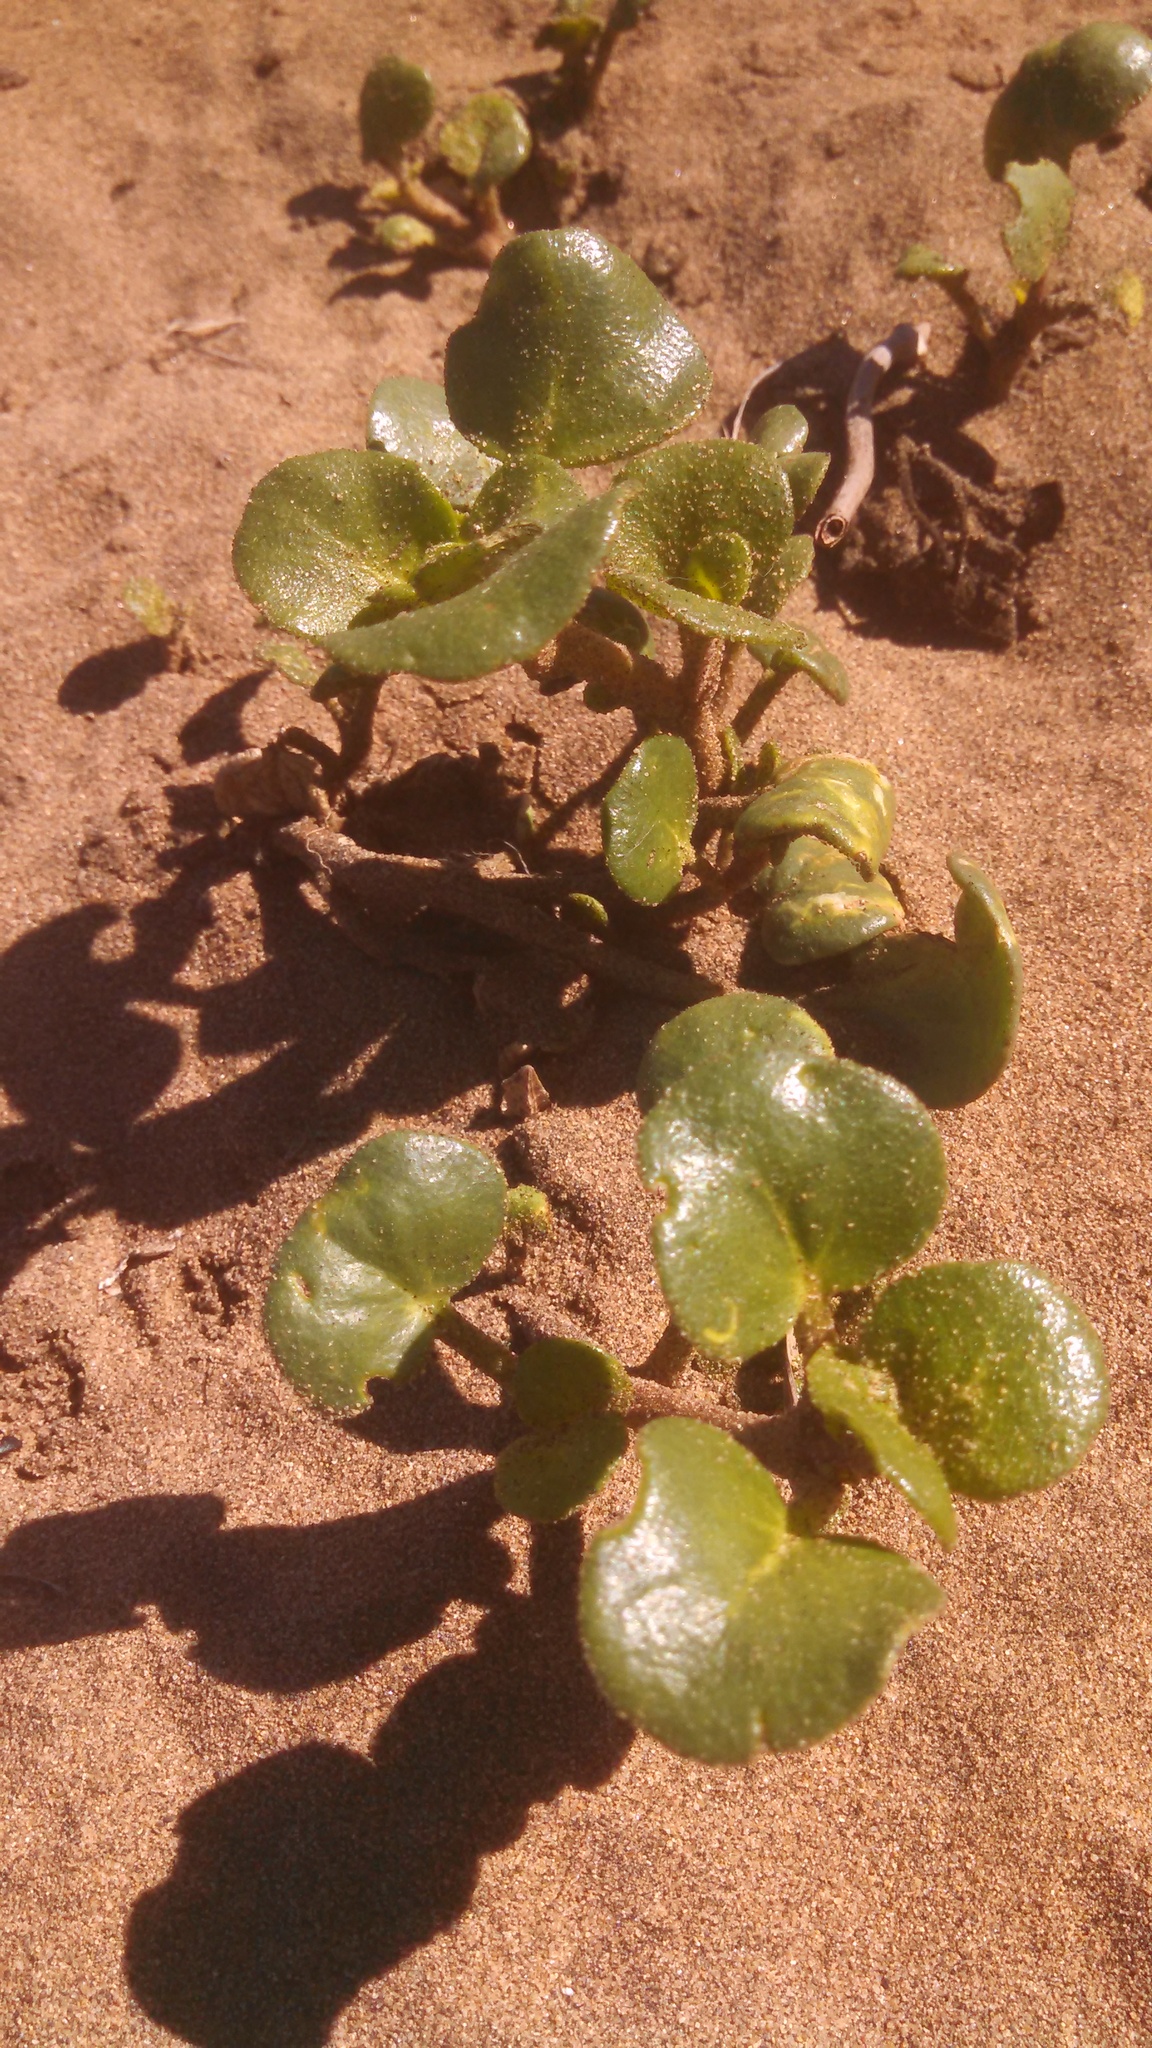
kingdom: Plantae
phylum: Tracheophyta
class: Magnoliopsida
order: Caryophyllales
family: Nyctaginaceae
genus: Abronia
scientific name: Abronia latifolia
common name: Yellow sand-verbena
